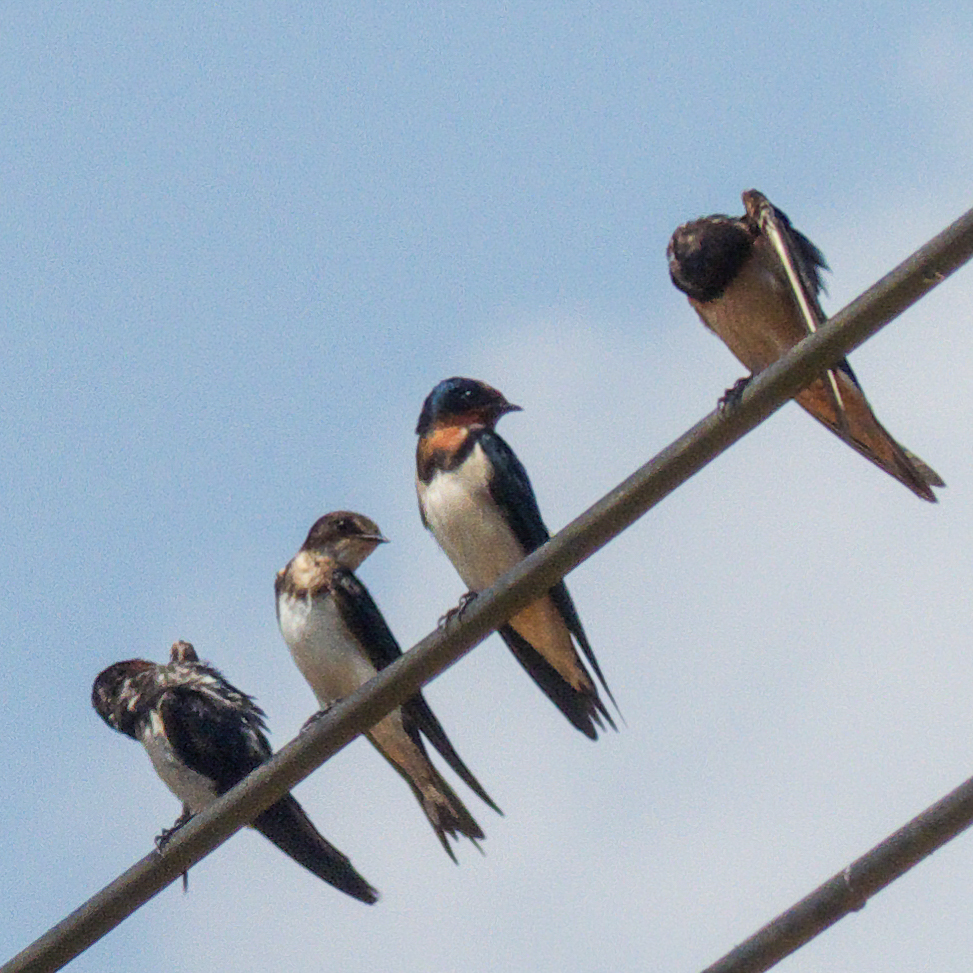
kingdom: Animalia
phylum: Chordata
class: Aves
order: Passeriformes
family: Hirundinidae
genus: Hirundo
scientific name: Hirundo rustica
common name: Barn swallow
